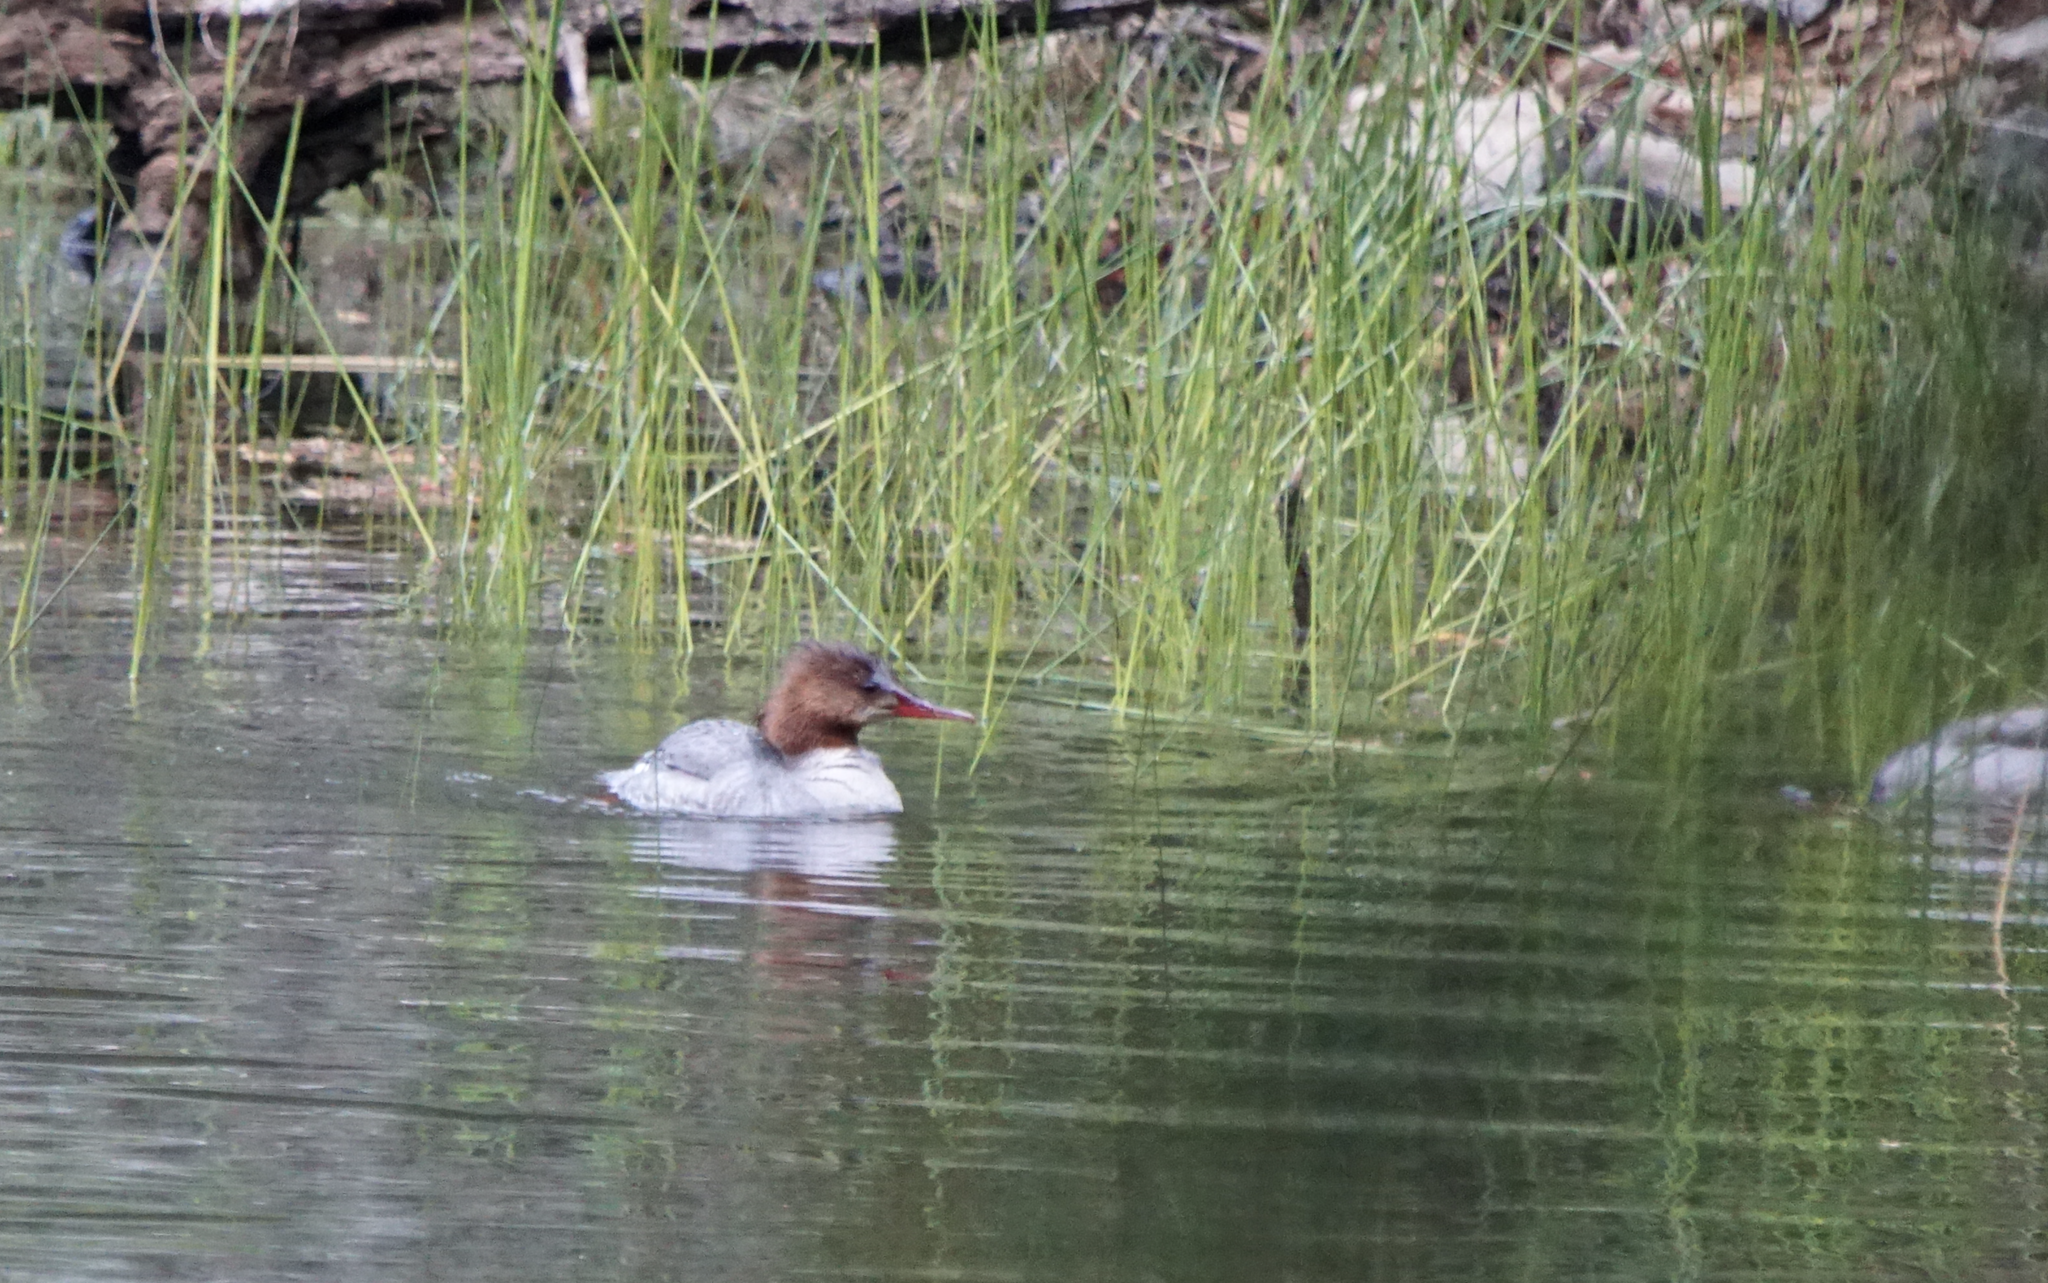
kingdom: Animalia
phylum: Chordata
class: Aves
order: Anseriformes
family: Anatidae
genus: Mergus
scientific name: Mergus merganser
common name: Common merganser
